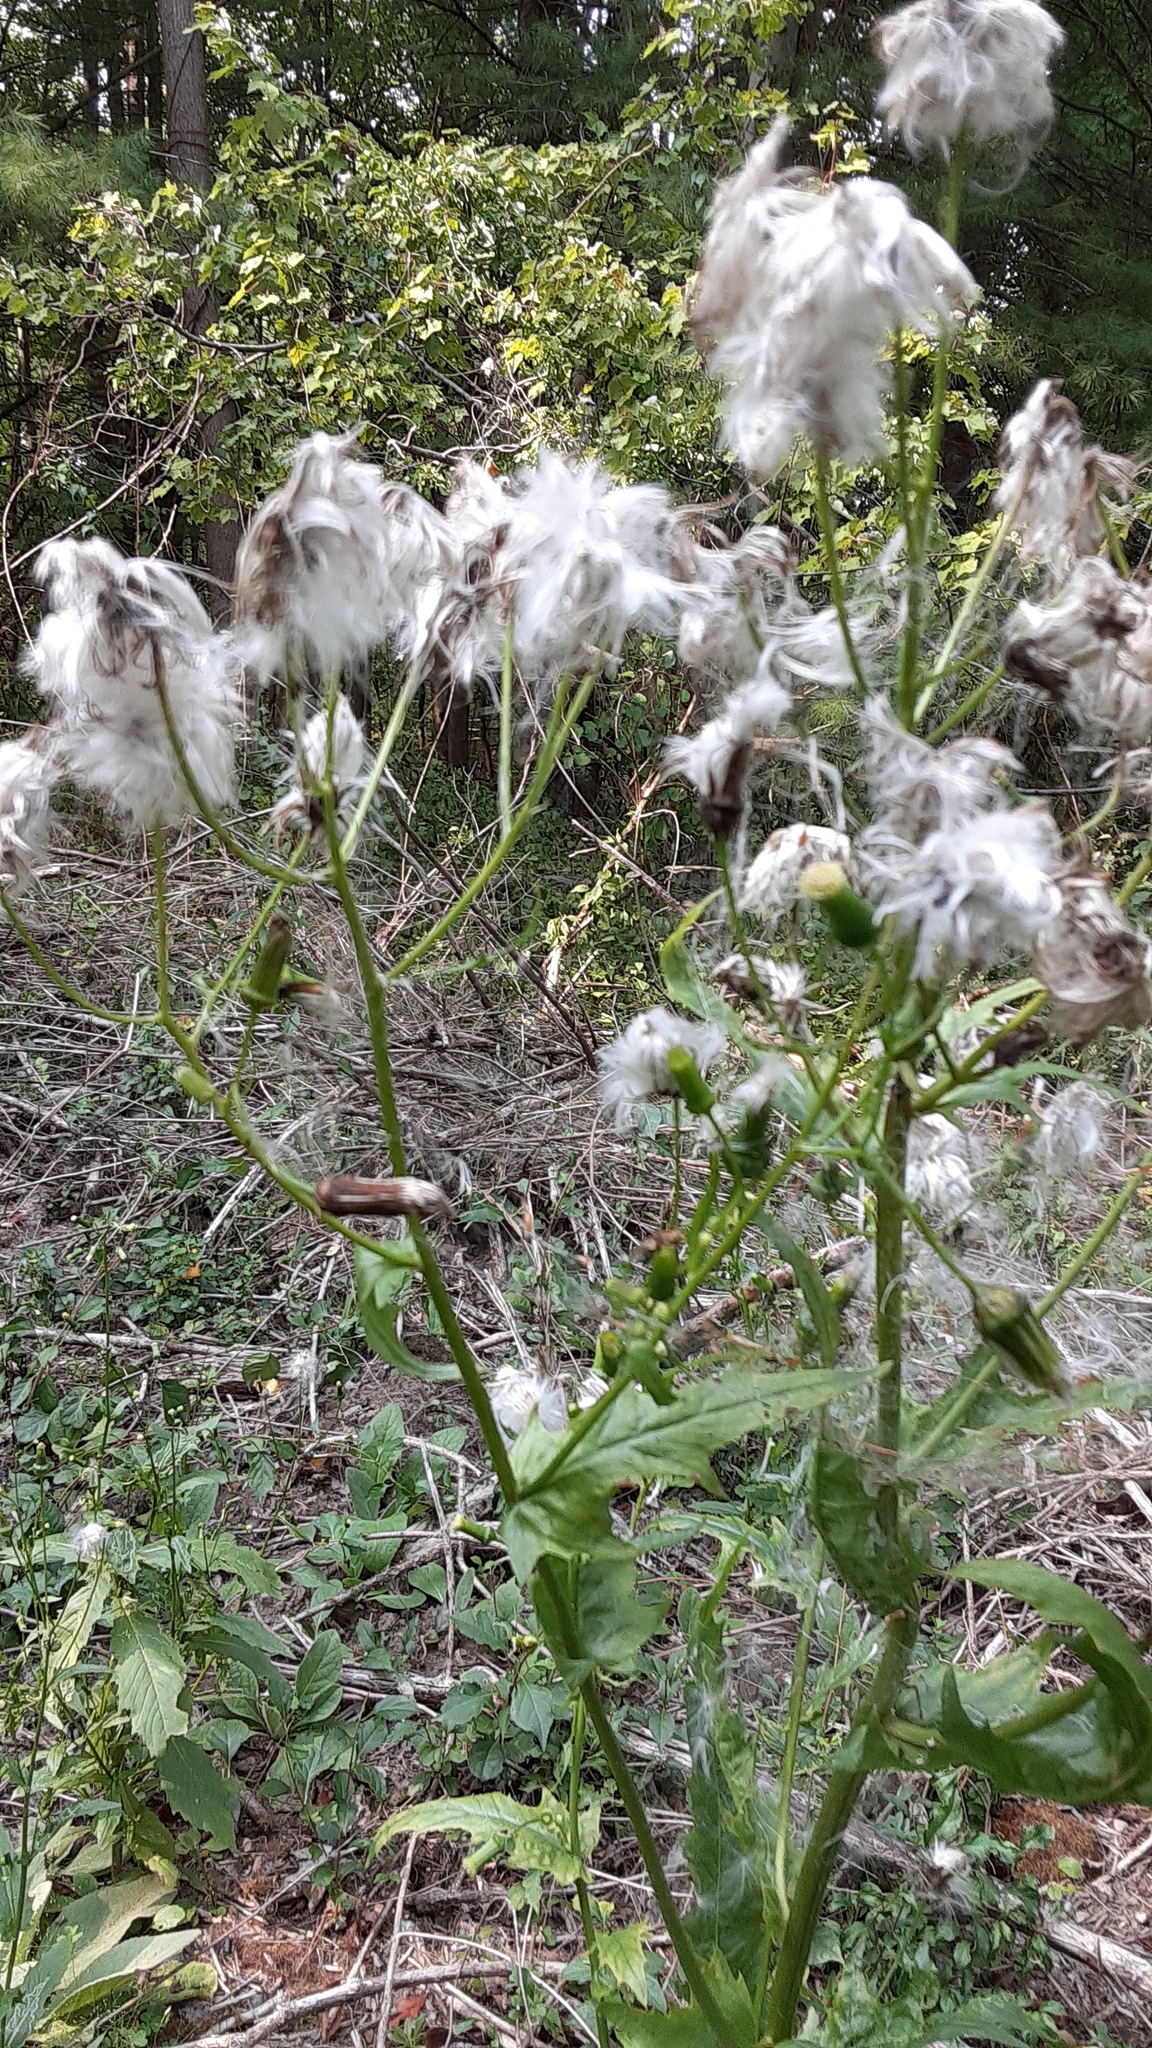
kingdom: Plantae
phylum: Tracheophyta
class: Magnoliopsida
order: Asterales
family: Asteraceae
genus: Erechtites
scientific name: Erechtites hieraciifolius
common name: American burnweed
